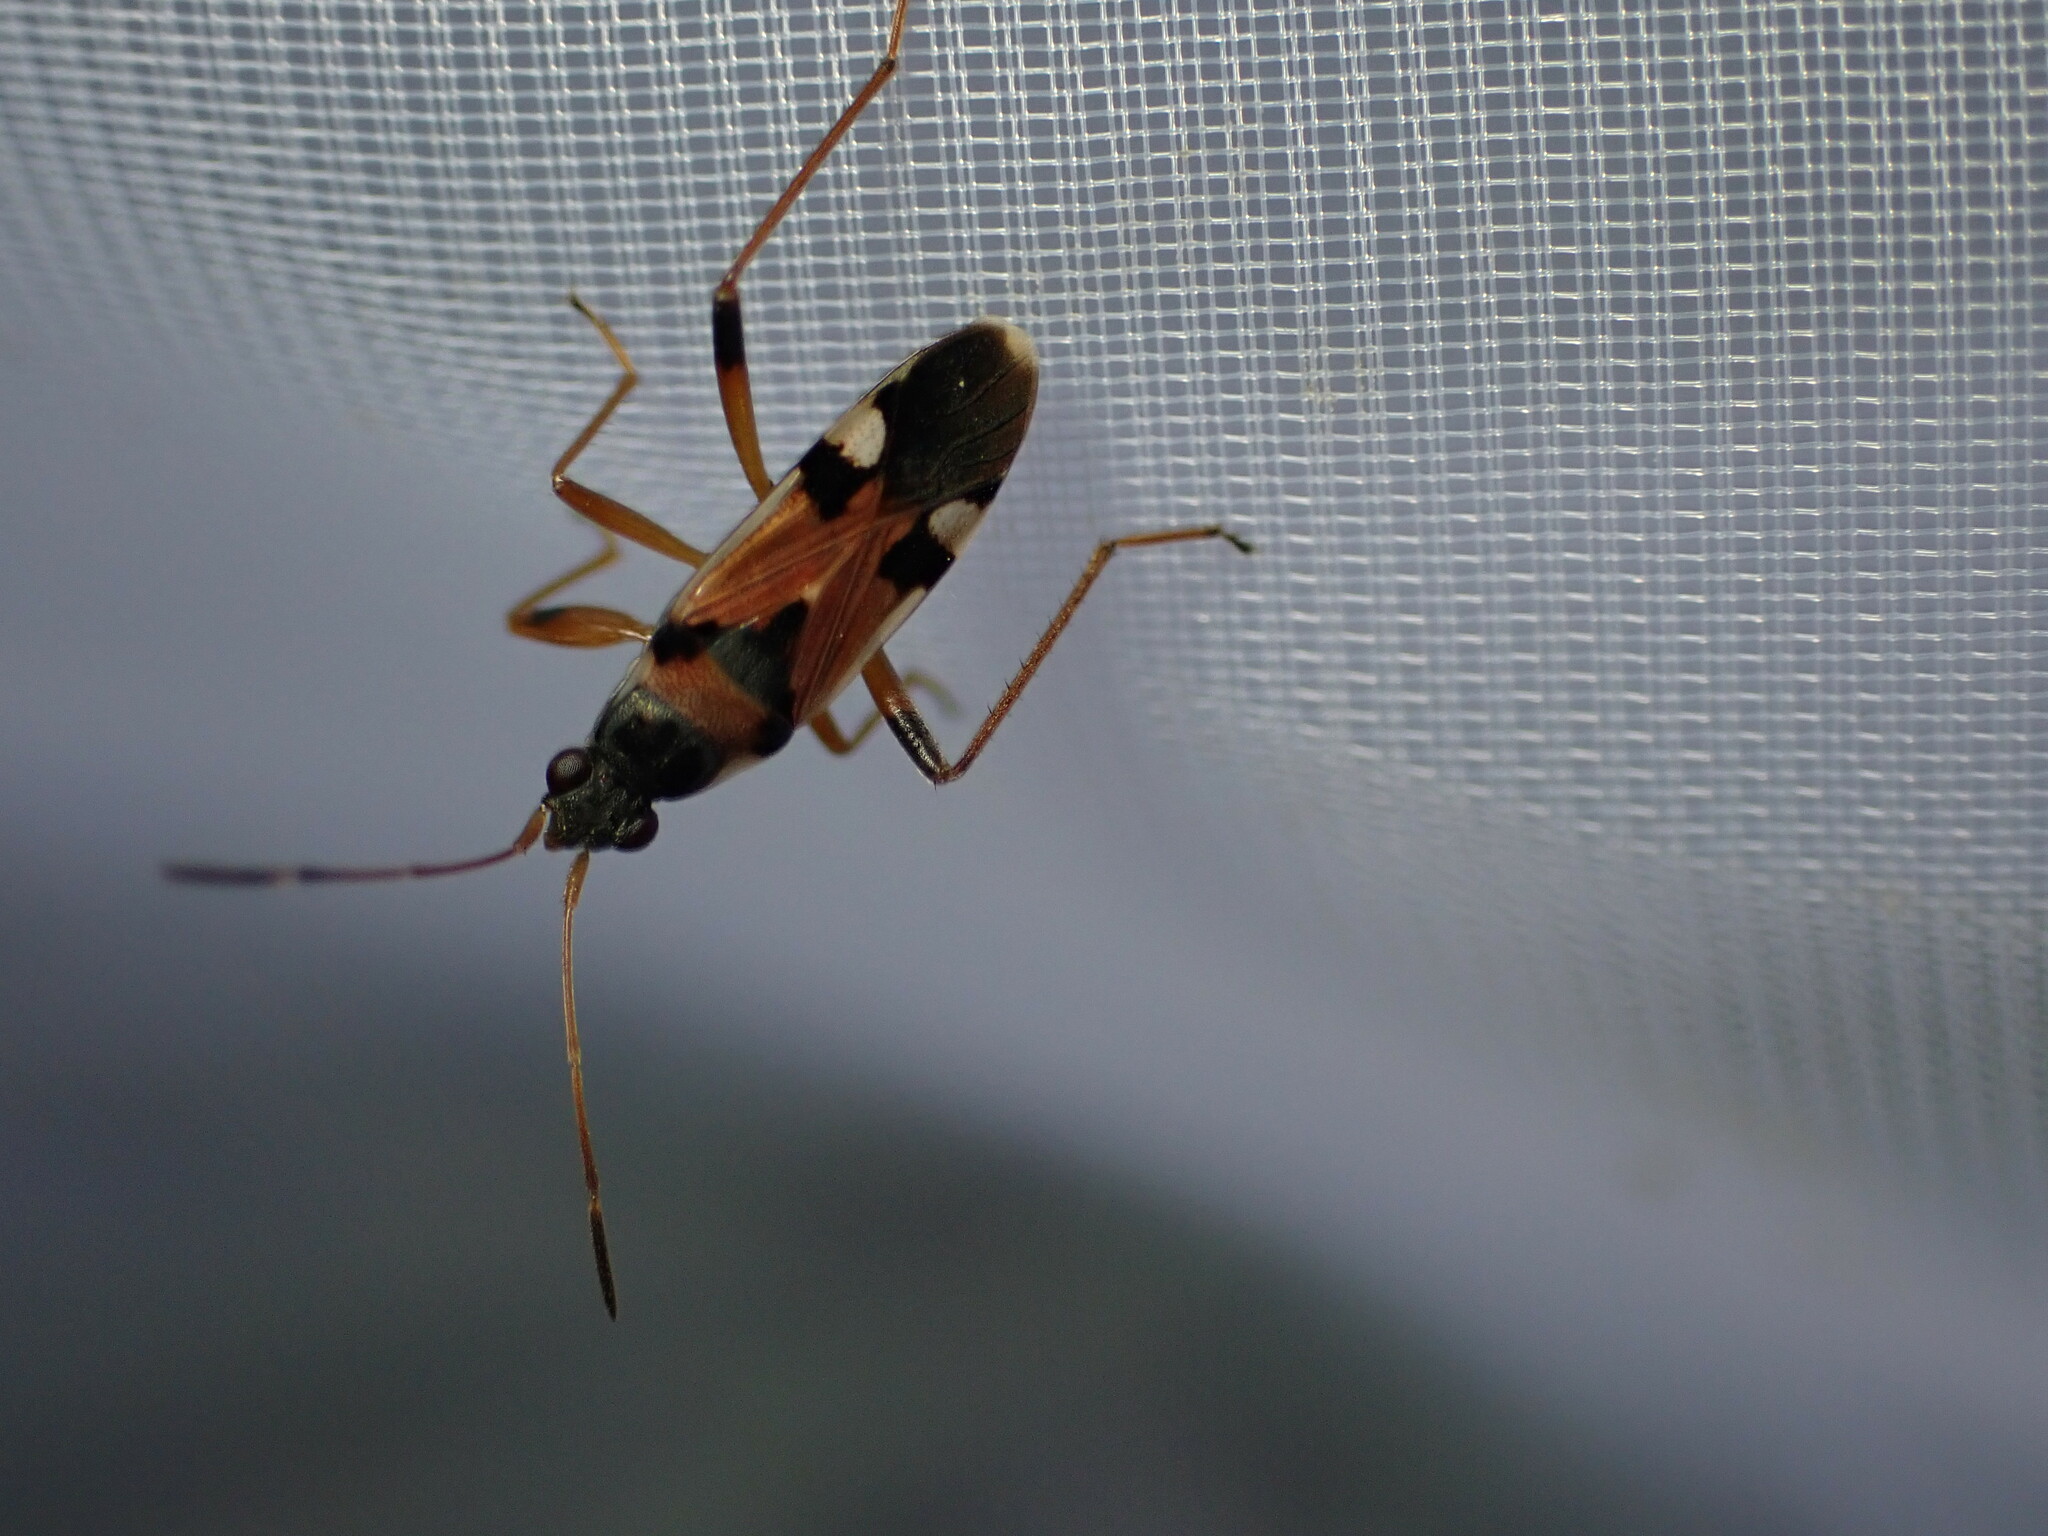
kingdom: Animalia
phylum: Arthropoda
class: Insecta
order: Hemiptera
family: Rhyparochromidae
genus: Beosus
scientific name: Beosus quadripunctatus
